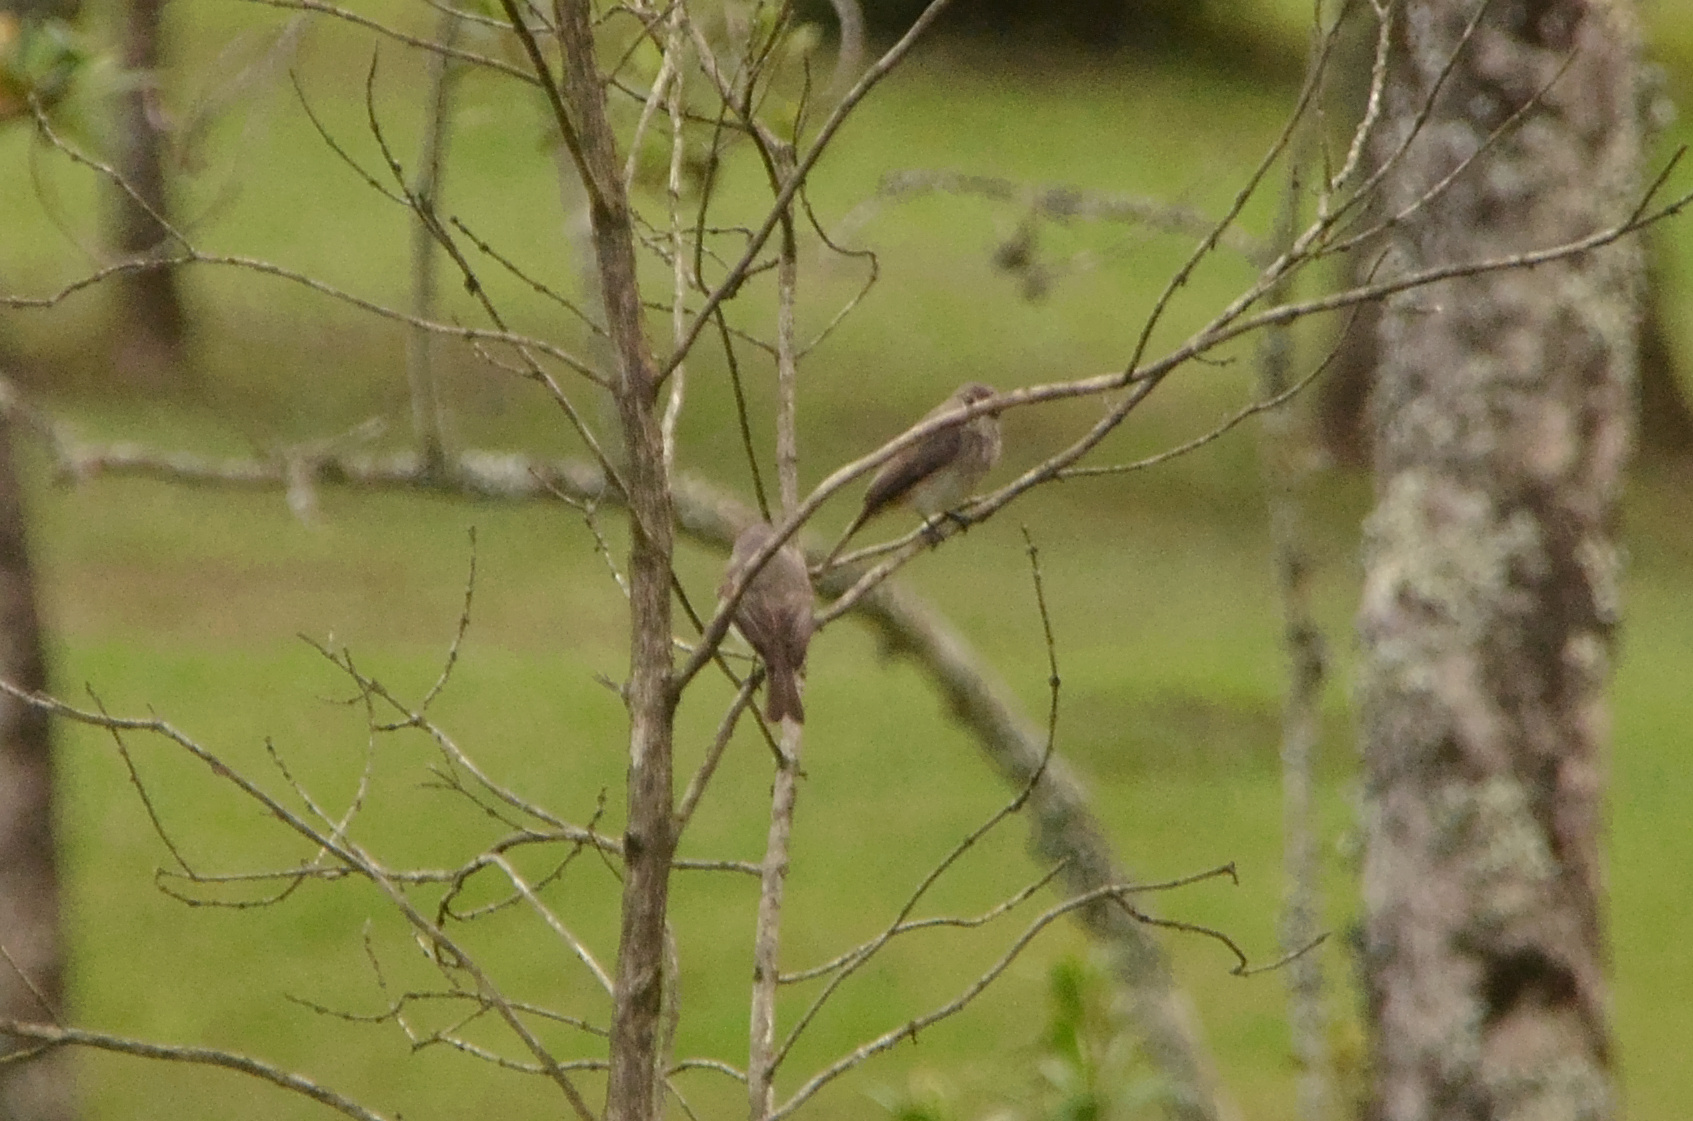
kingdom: Animalia
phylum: Chordata
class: Aves
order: Passeriformes
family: Muscicapidae
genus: Muscicapa
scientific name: Muscicapa adusta
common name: African dusky flycatcher
